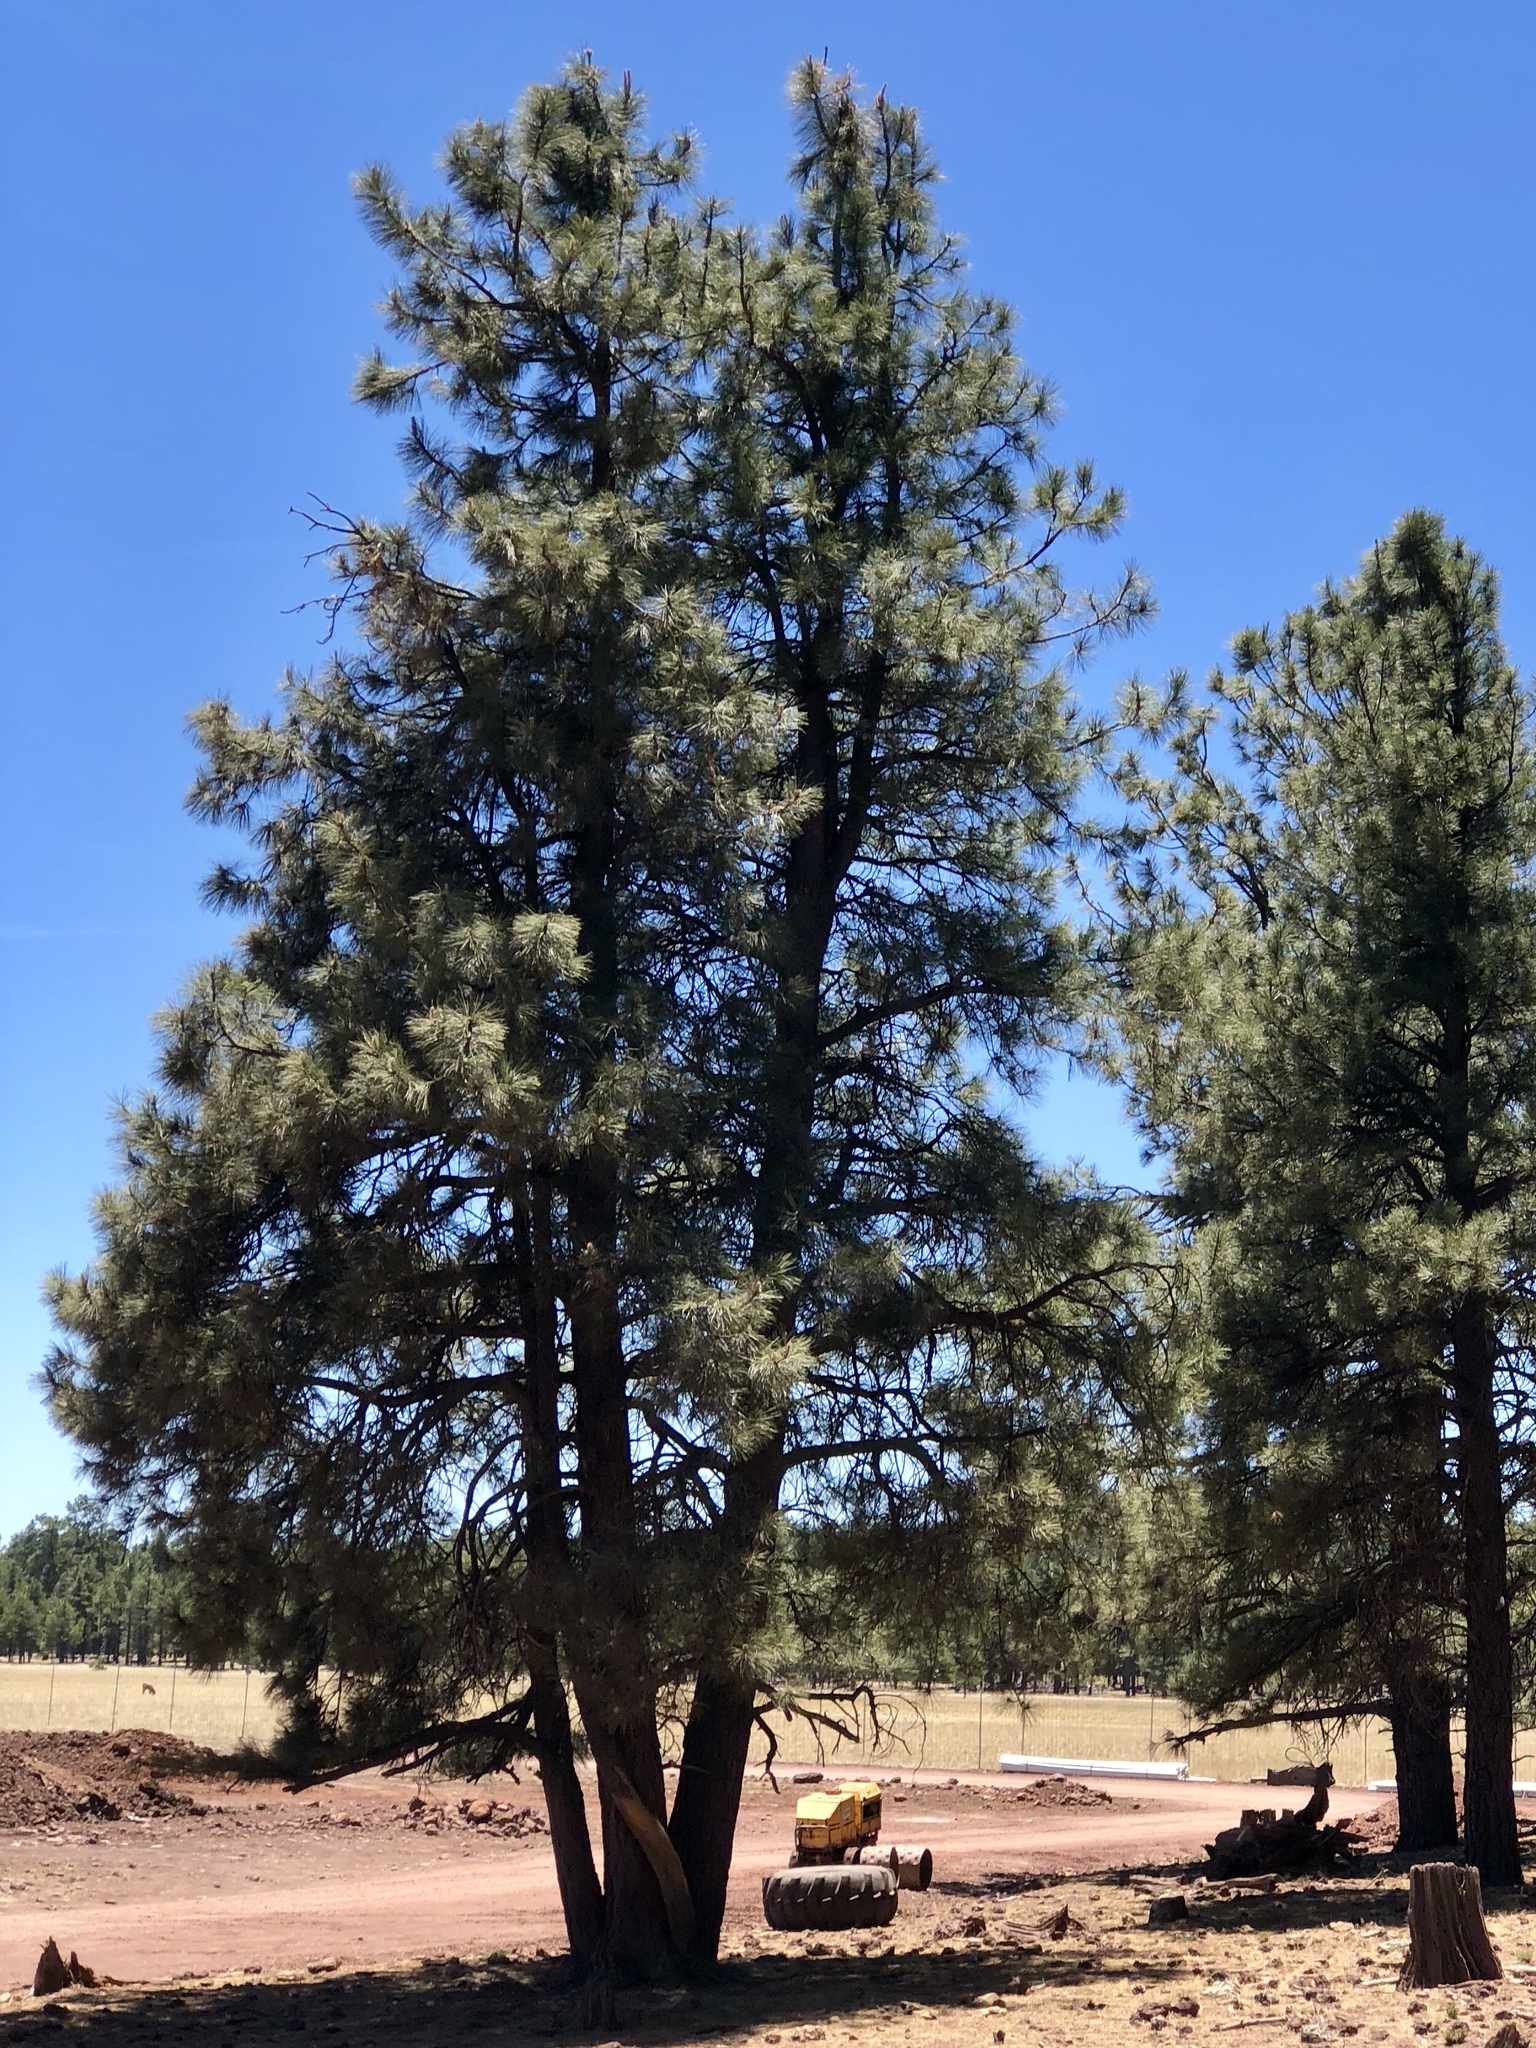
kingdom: Plantae
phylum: Tracheophyta
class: Pinopsida
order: Pinales
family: Pinaceae
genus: Pinus
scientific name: Pinus ponderosa
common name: Western yellow-pine
